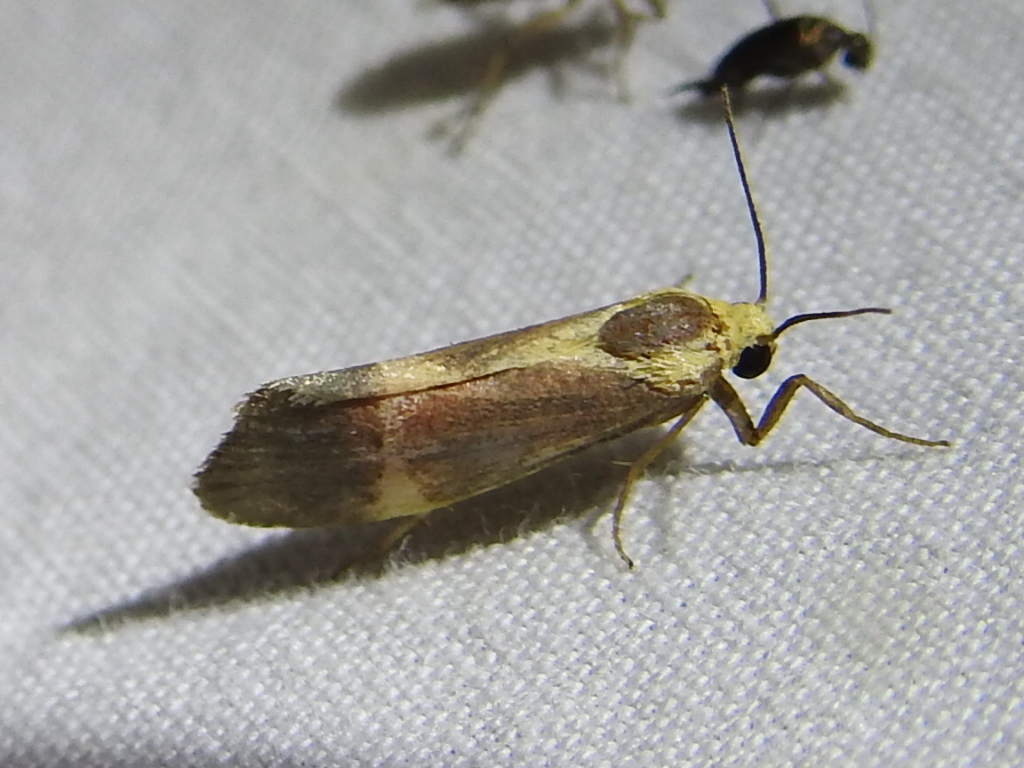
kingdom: Animalia
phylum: Arthropoda
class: Insecta
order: Lepidoptera
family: Erebidae
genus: Cisthene
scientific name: Cisthene tenuifascia
